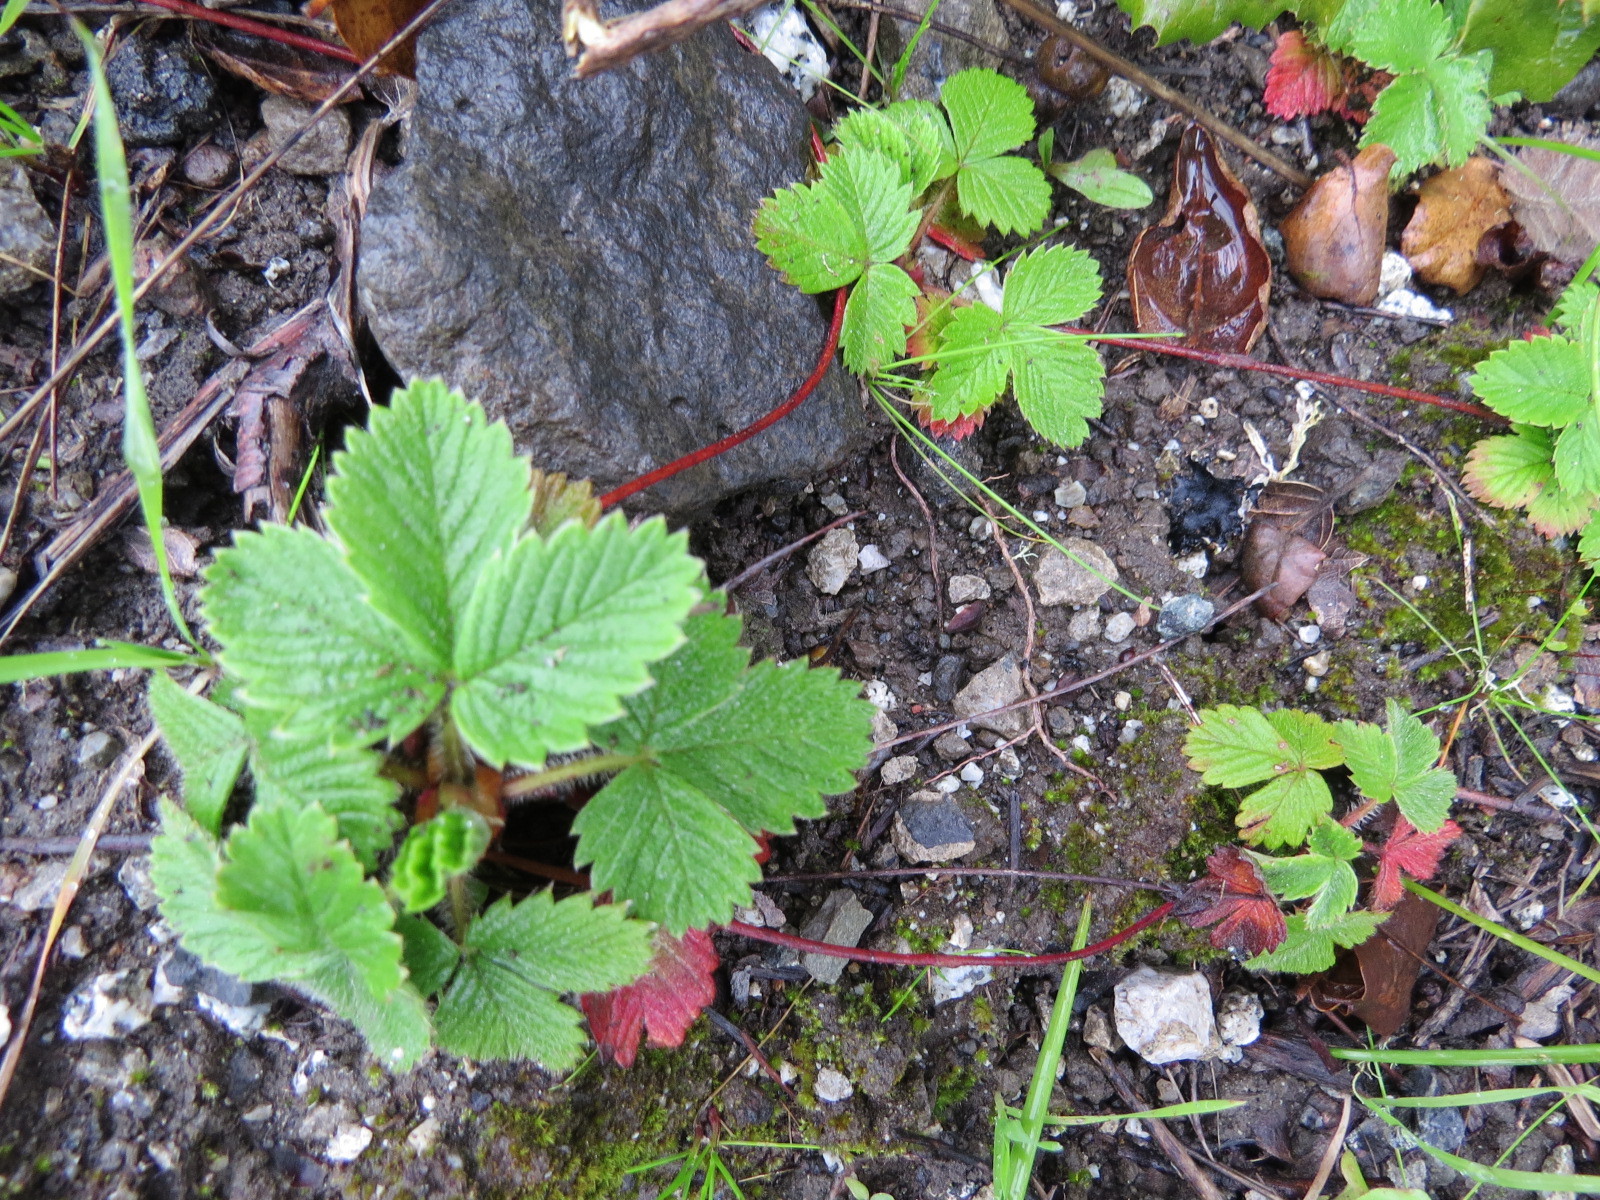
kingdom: Plantae
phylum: Tracheophyta
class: Magnoliopsida
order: Rosales
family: Rosaceae
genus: Fragaria
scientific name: Fragaria vesca
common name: Wild strawberry
